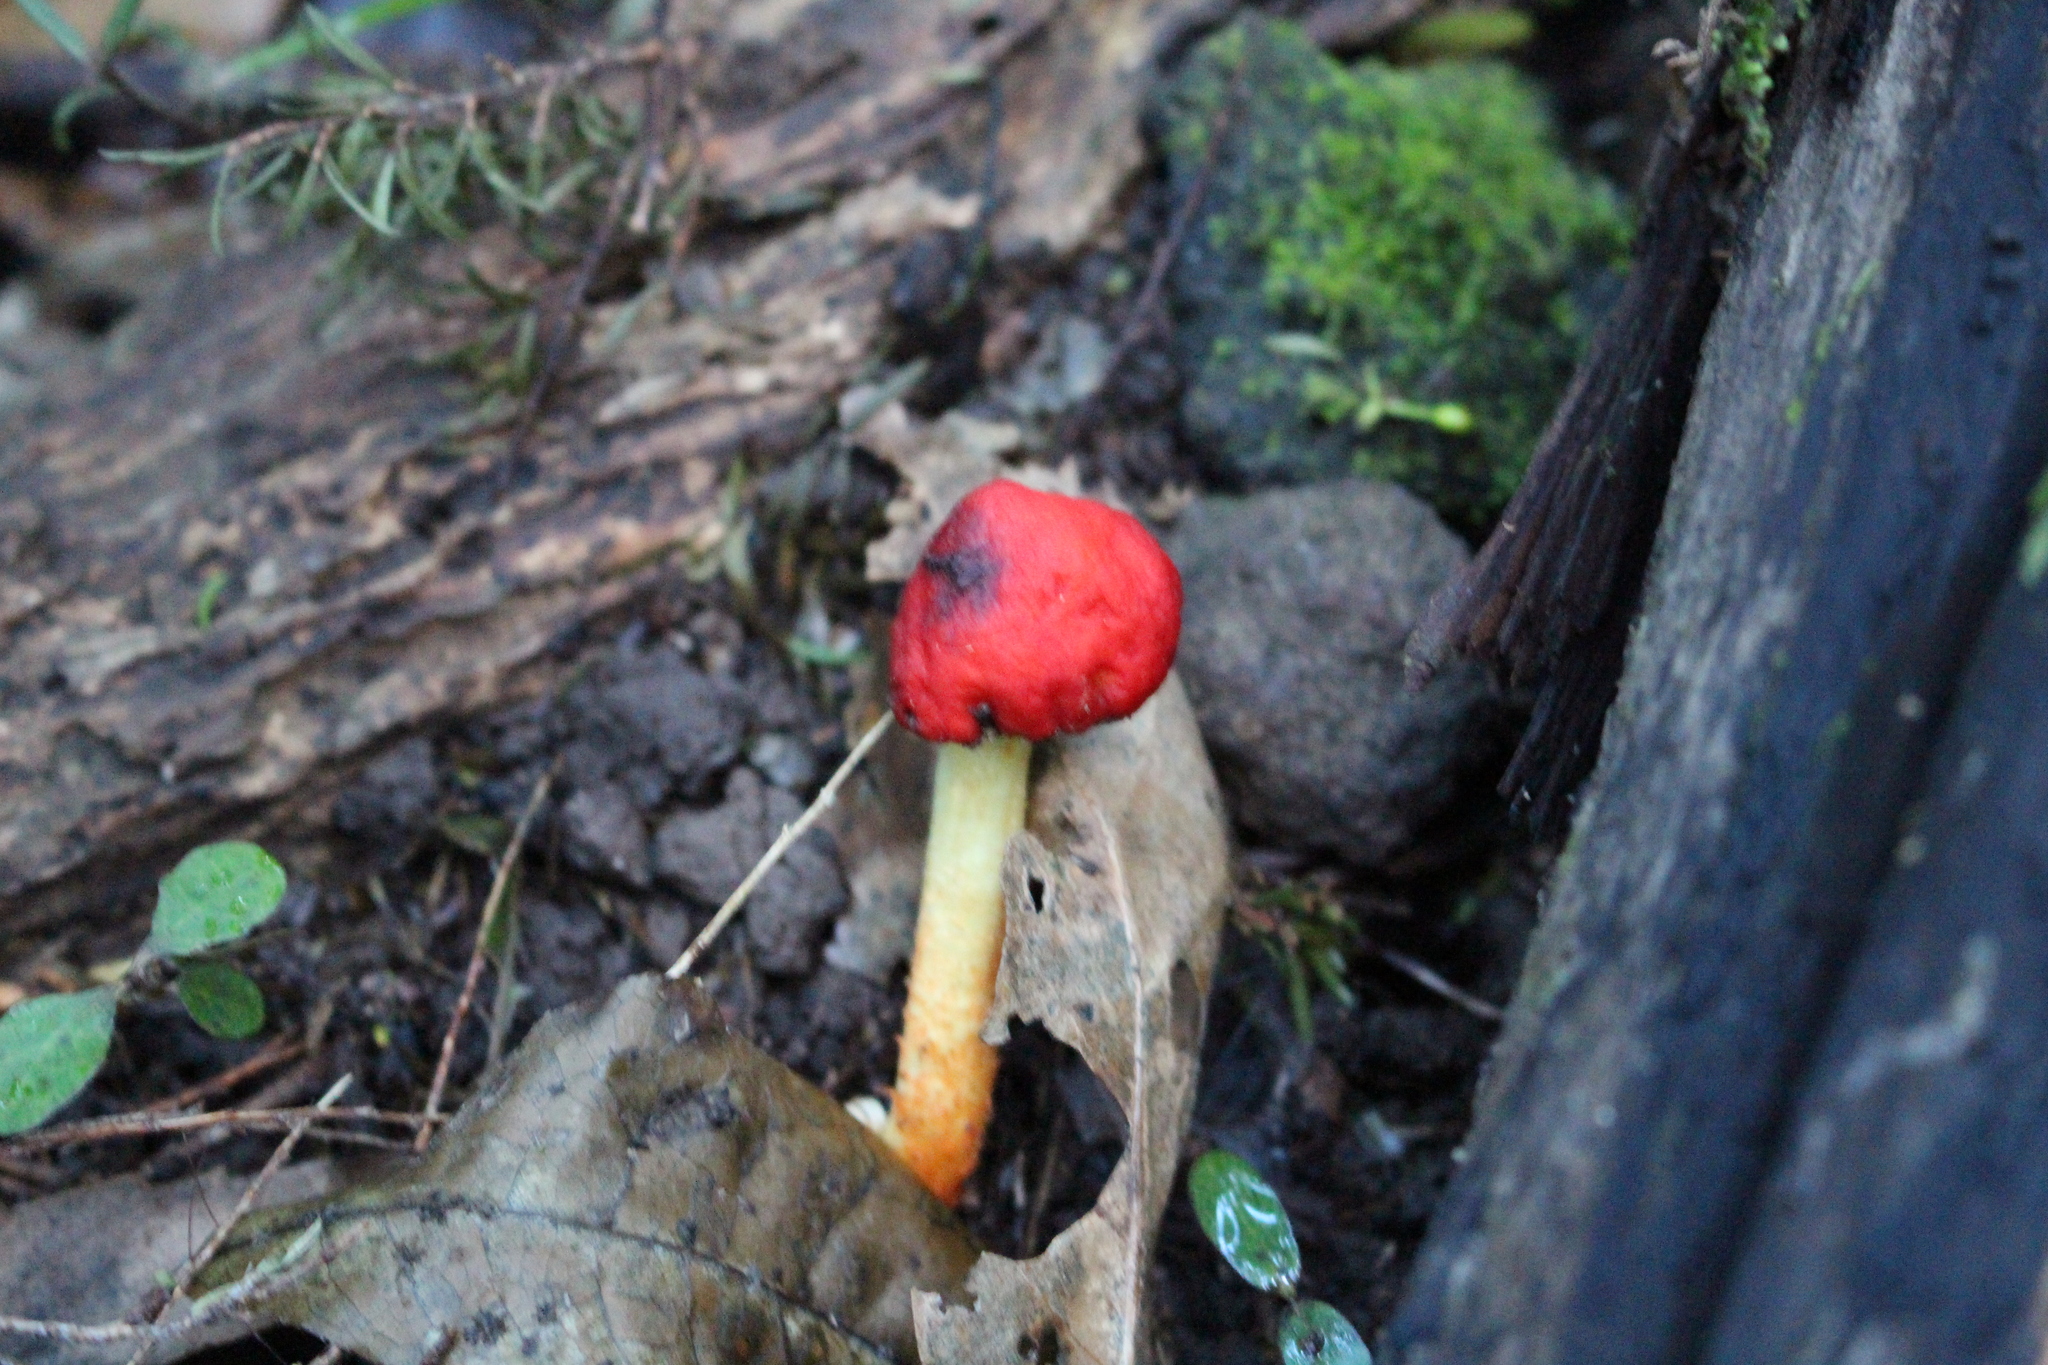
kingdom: Fungi
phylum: Basidiomycota
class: Agaricomycetes
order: Agaricales
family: Strophariaceae
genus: Leratiomyces
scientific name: Leratiomyces erythrocephalus
